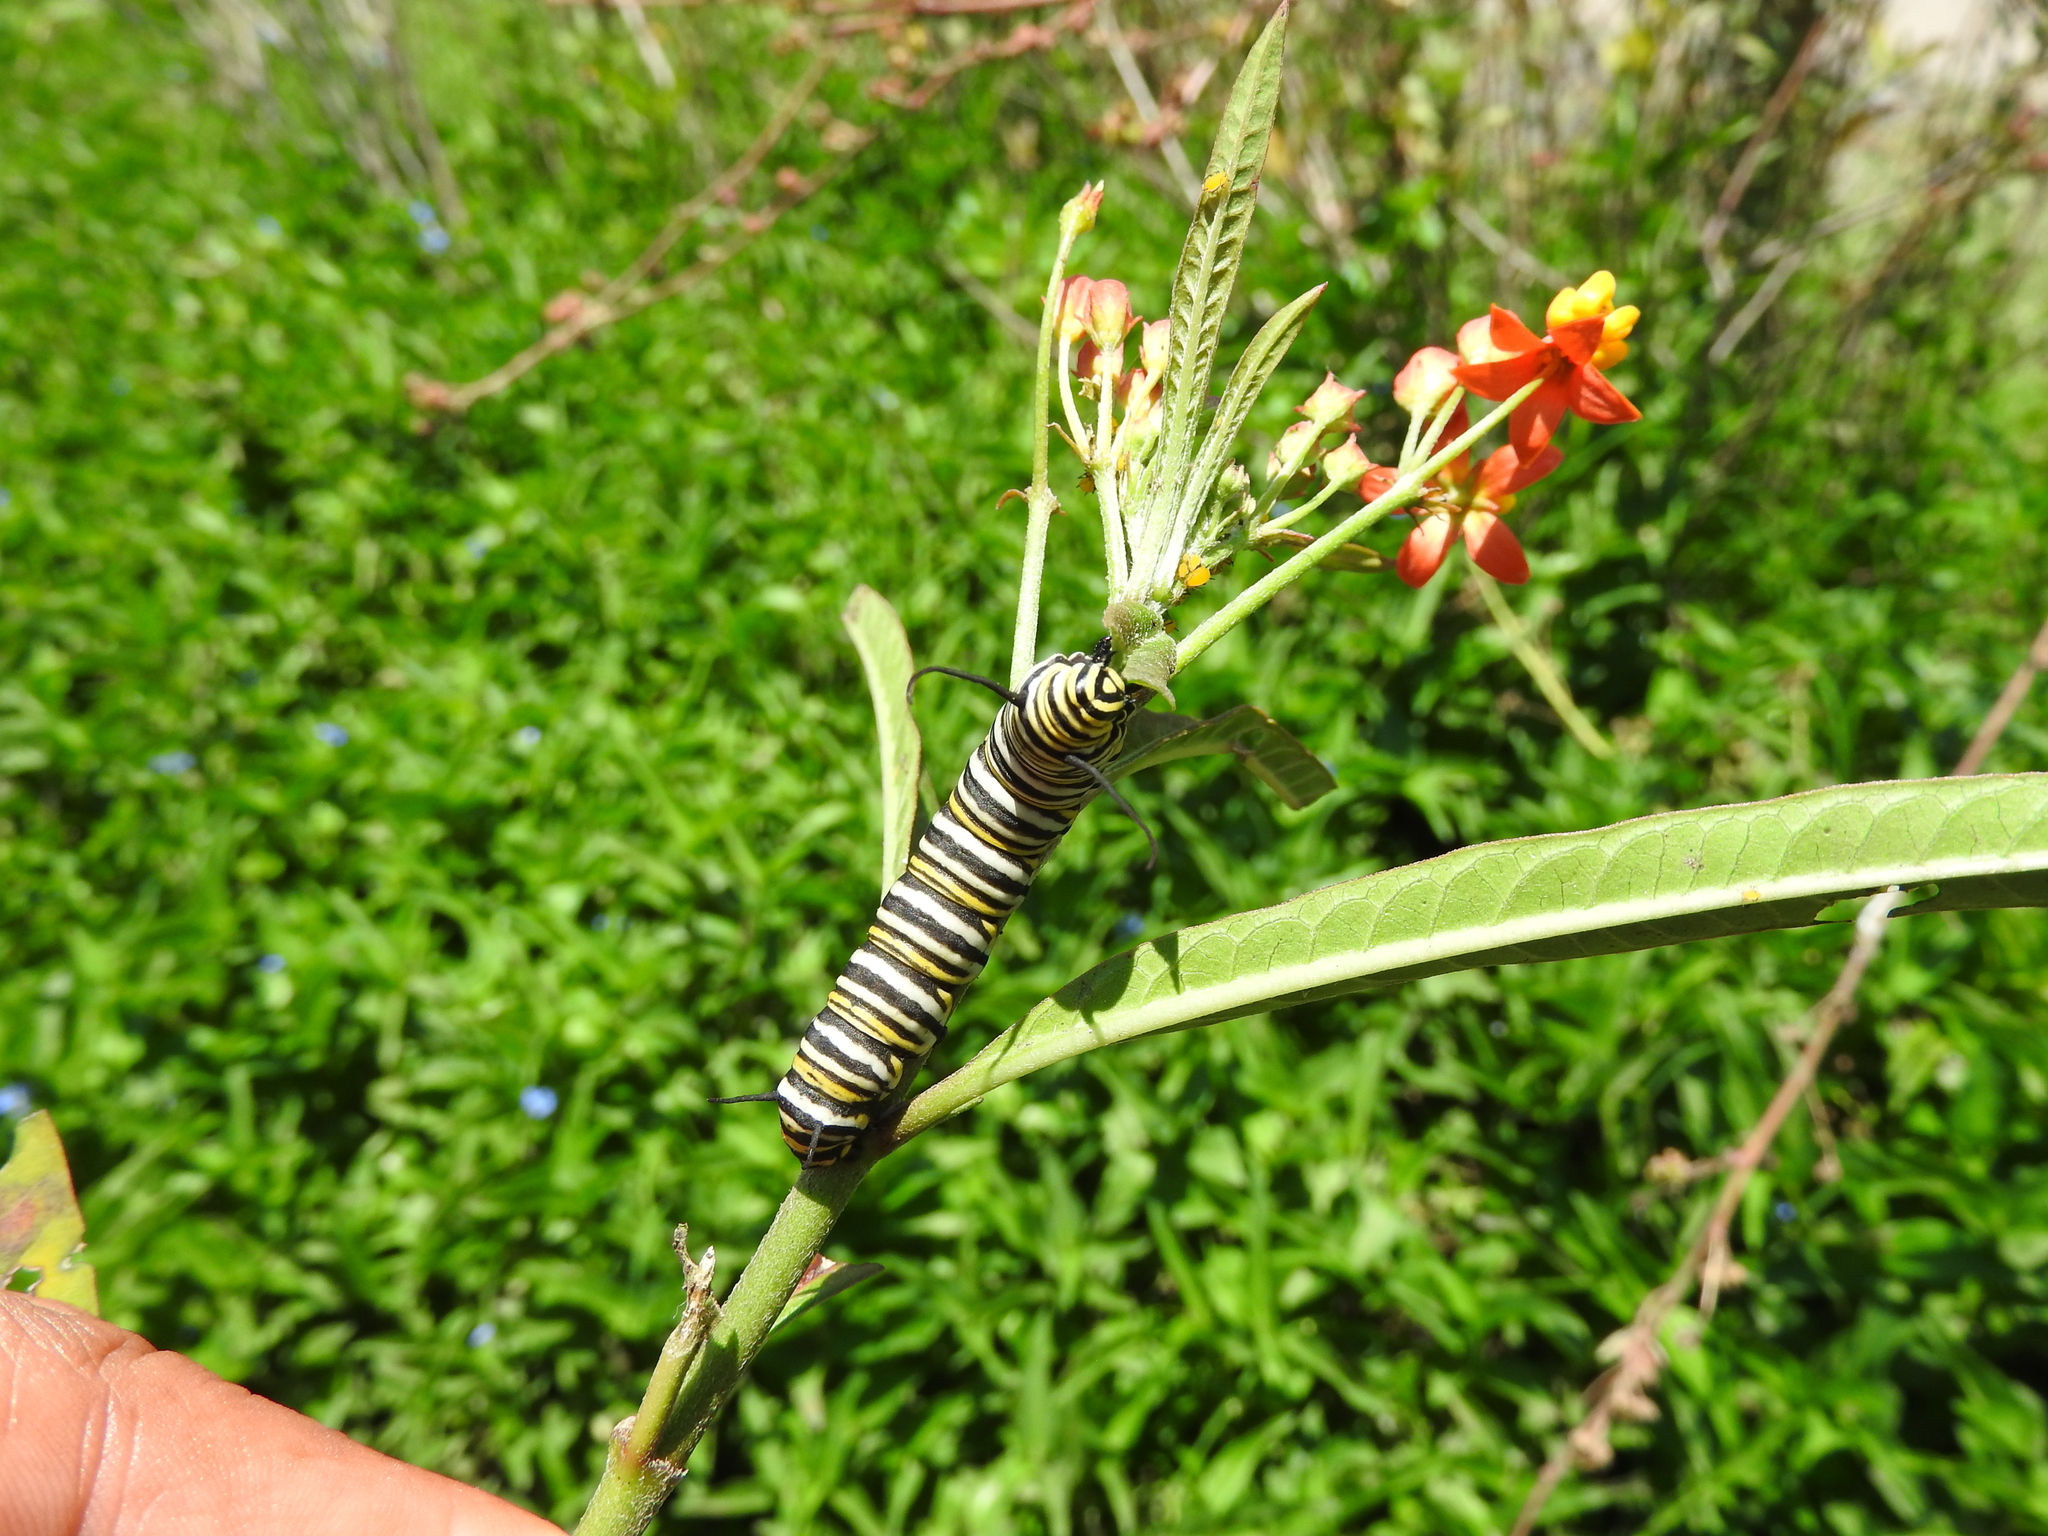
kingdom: Animalia
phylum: Arthropoda
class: Insecta
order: Lepidoptera
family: Nymphalidae
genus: Danaus
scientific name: Danaus plexippus
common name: Monarch
